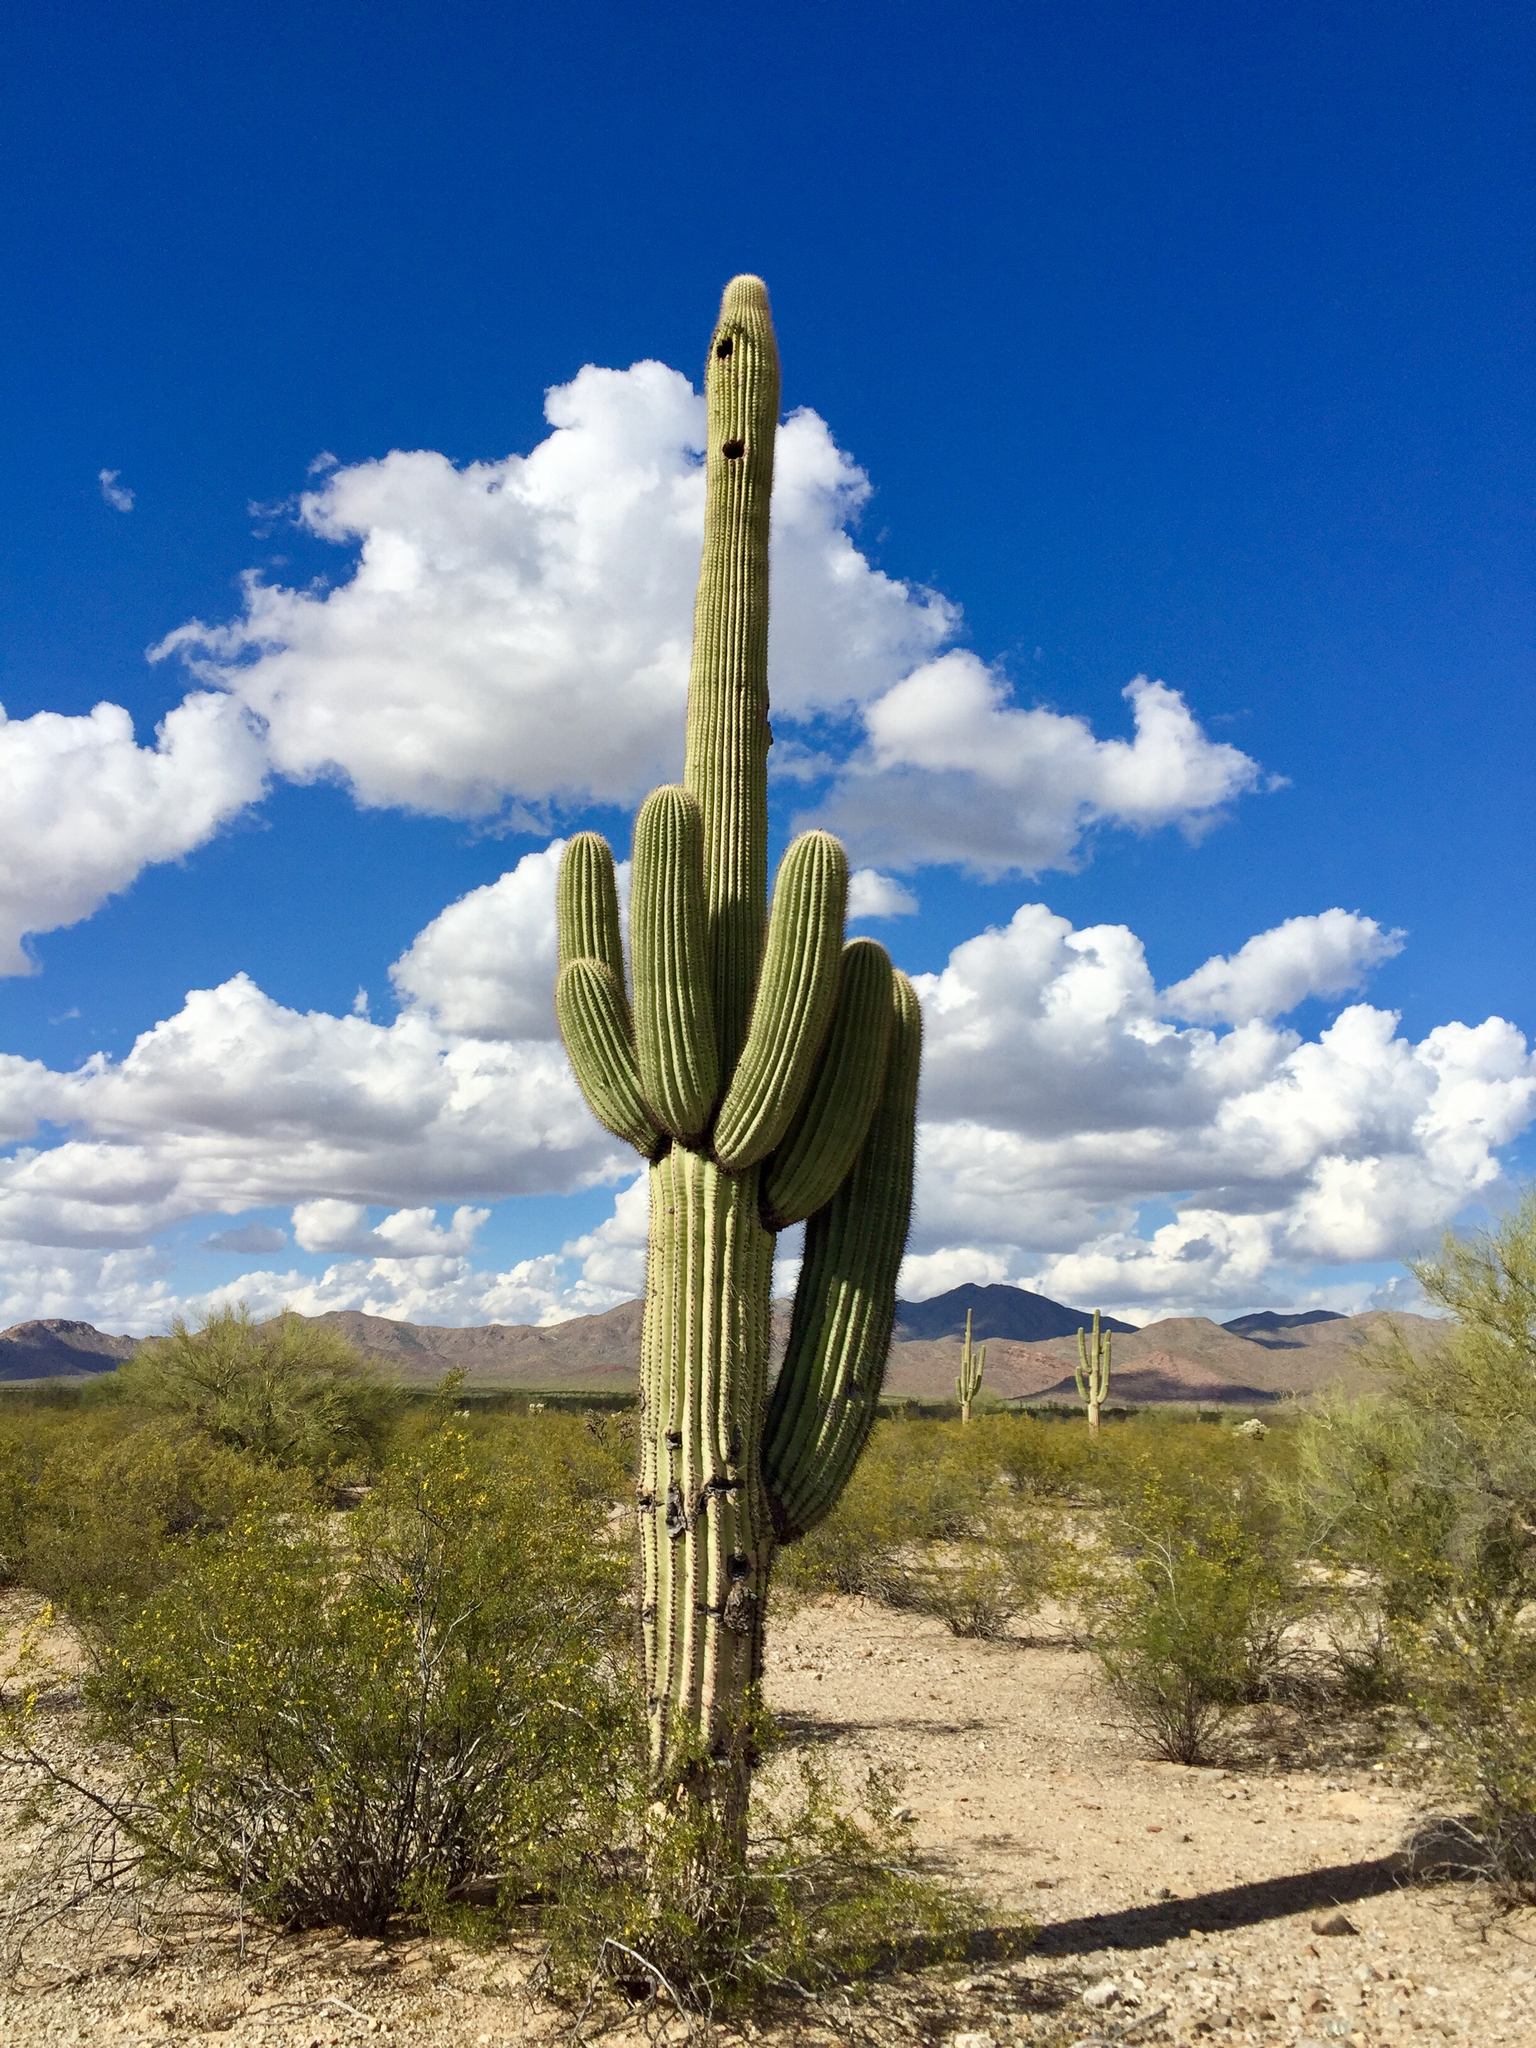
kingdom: Plantae
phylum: Tracheophyta
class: Magnoliopsida
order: Caryophyllales
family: Cactaceae
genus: Carnegiea
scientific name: Carnegiea gigantea
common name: Saguaro
